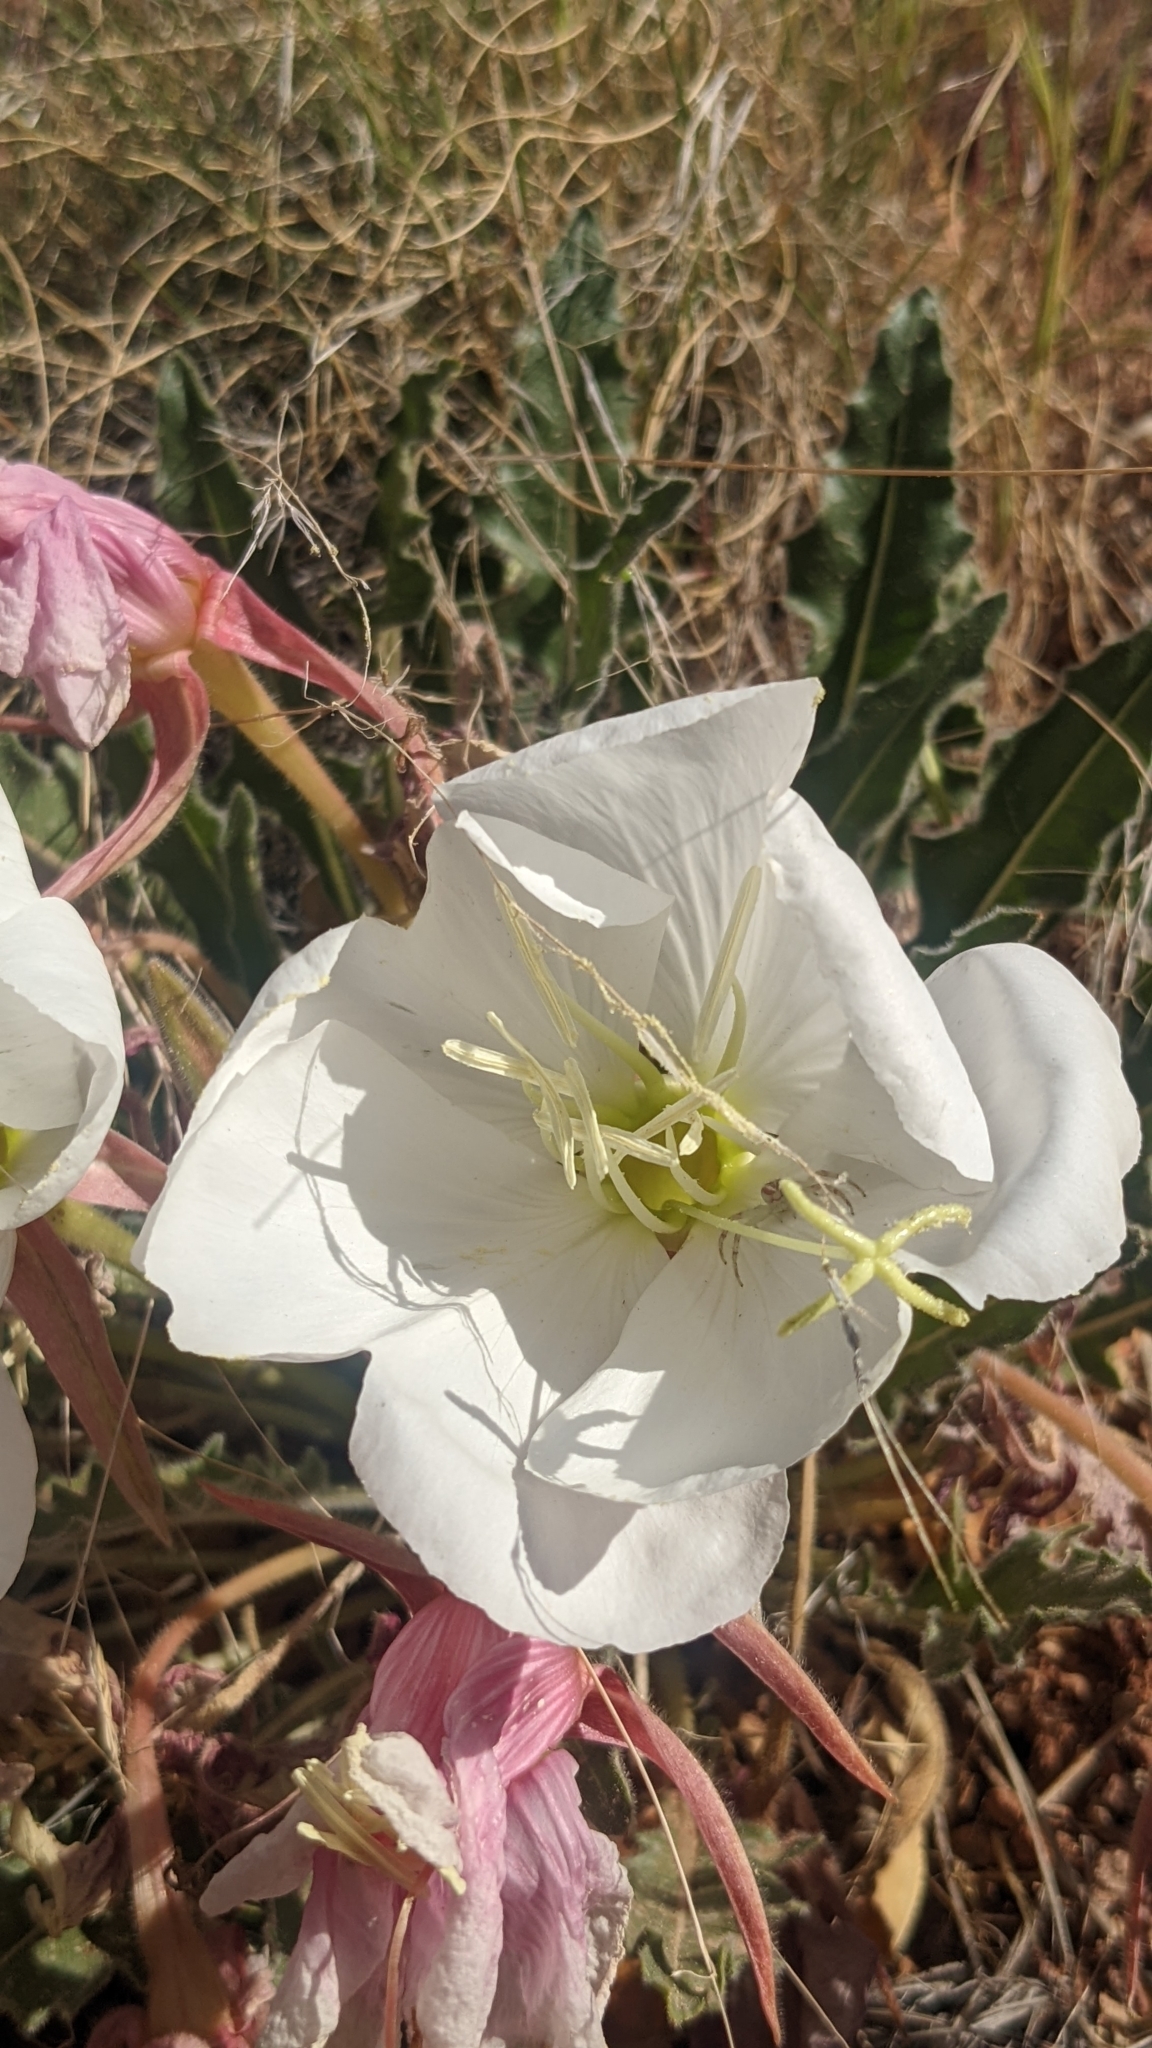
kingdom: Plantae
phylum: Tracheophyta
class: Magnoliopsida
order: Myrtales
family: Onagraceae
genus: Oenothera
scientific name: Oenothera cespitosa
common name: Tufted evening-primrose
